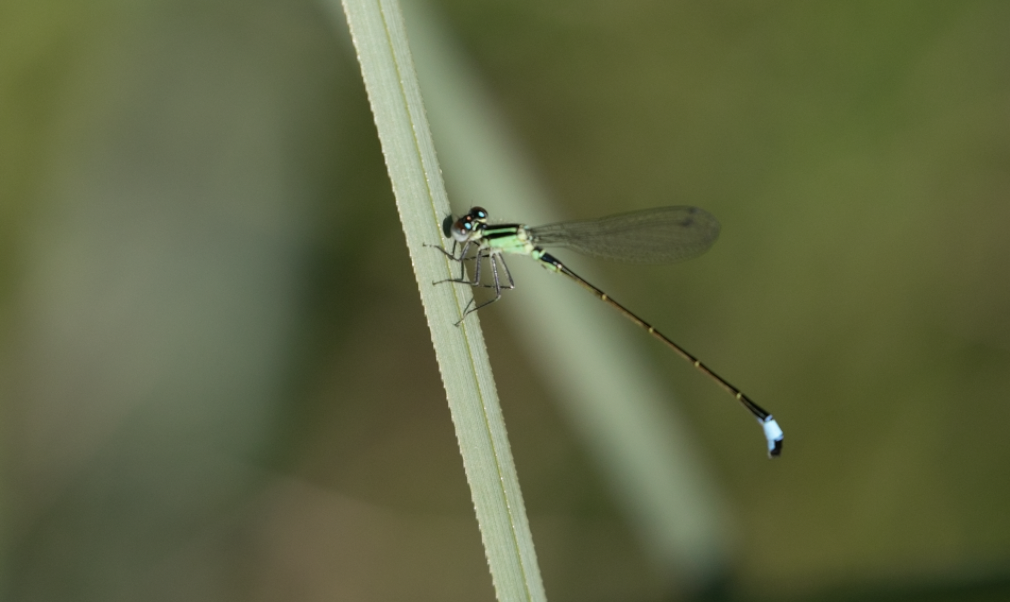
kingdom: Animalia
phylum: Arthropoda
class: Insecta
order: Odonata
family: Coenagrionidae
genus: Ischnura
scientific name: Ischnura elegans
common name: Blue-tailed damselfly
